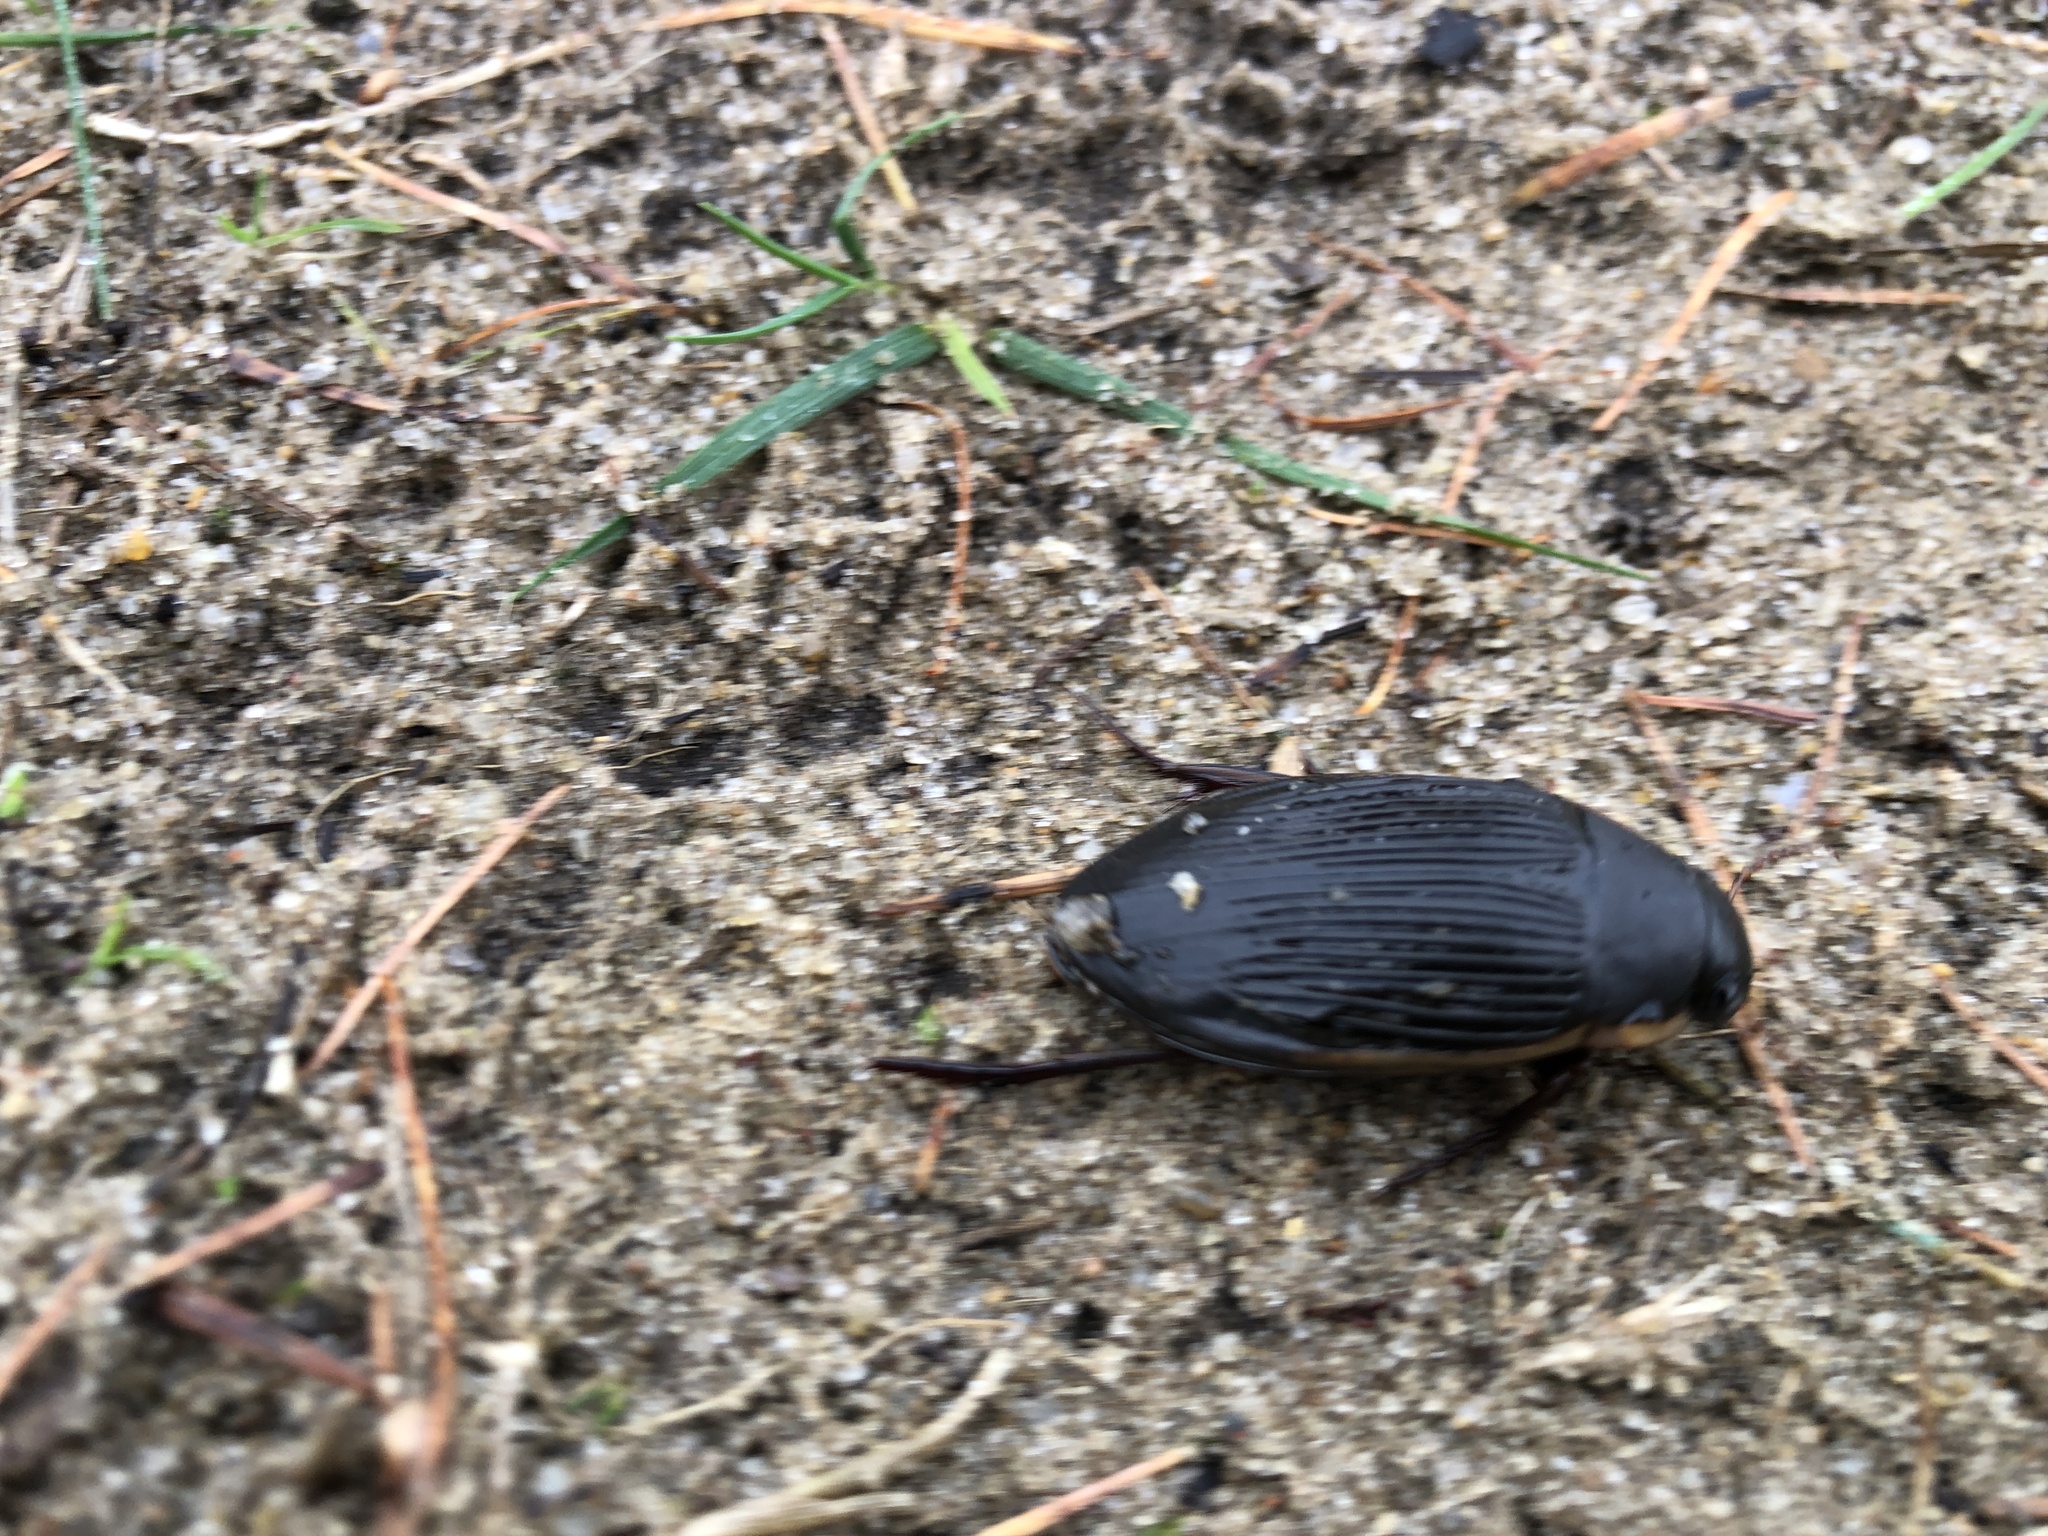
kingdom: Animalia
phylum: Arthropoda
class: Insecta
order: Coleoptera
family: Dytiscidae
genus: Dytiscus
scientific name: Dytiscus semisulcatus
